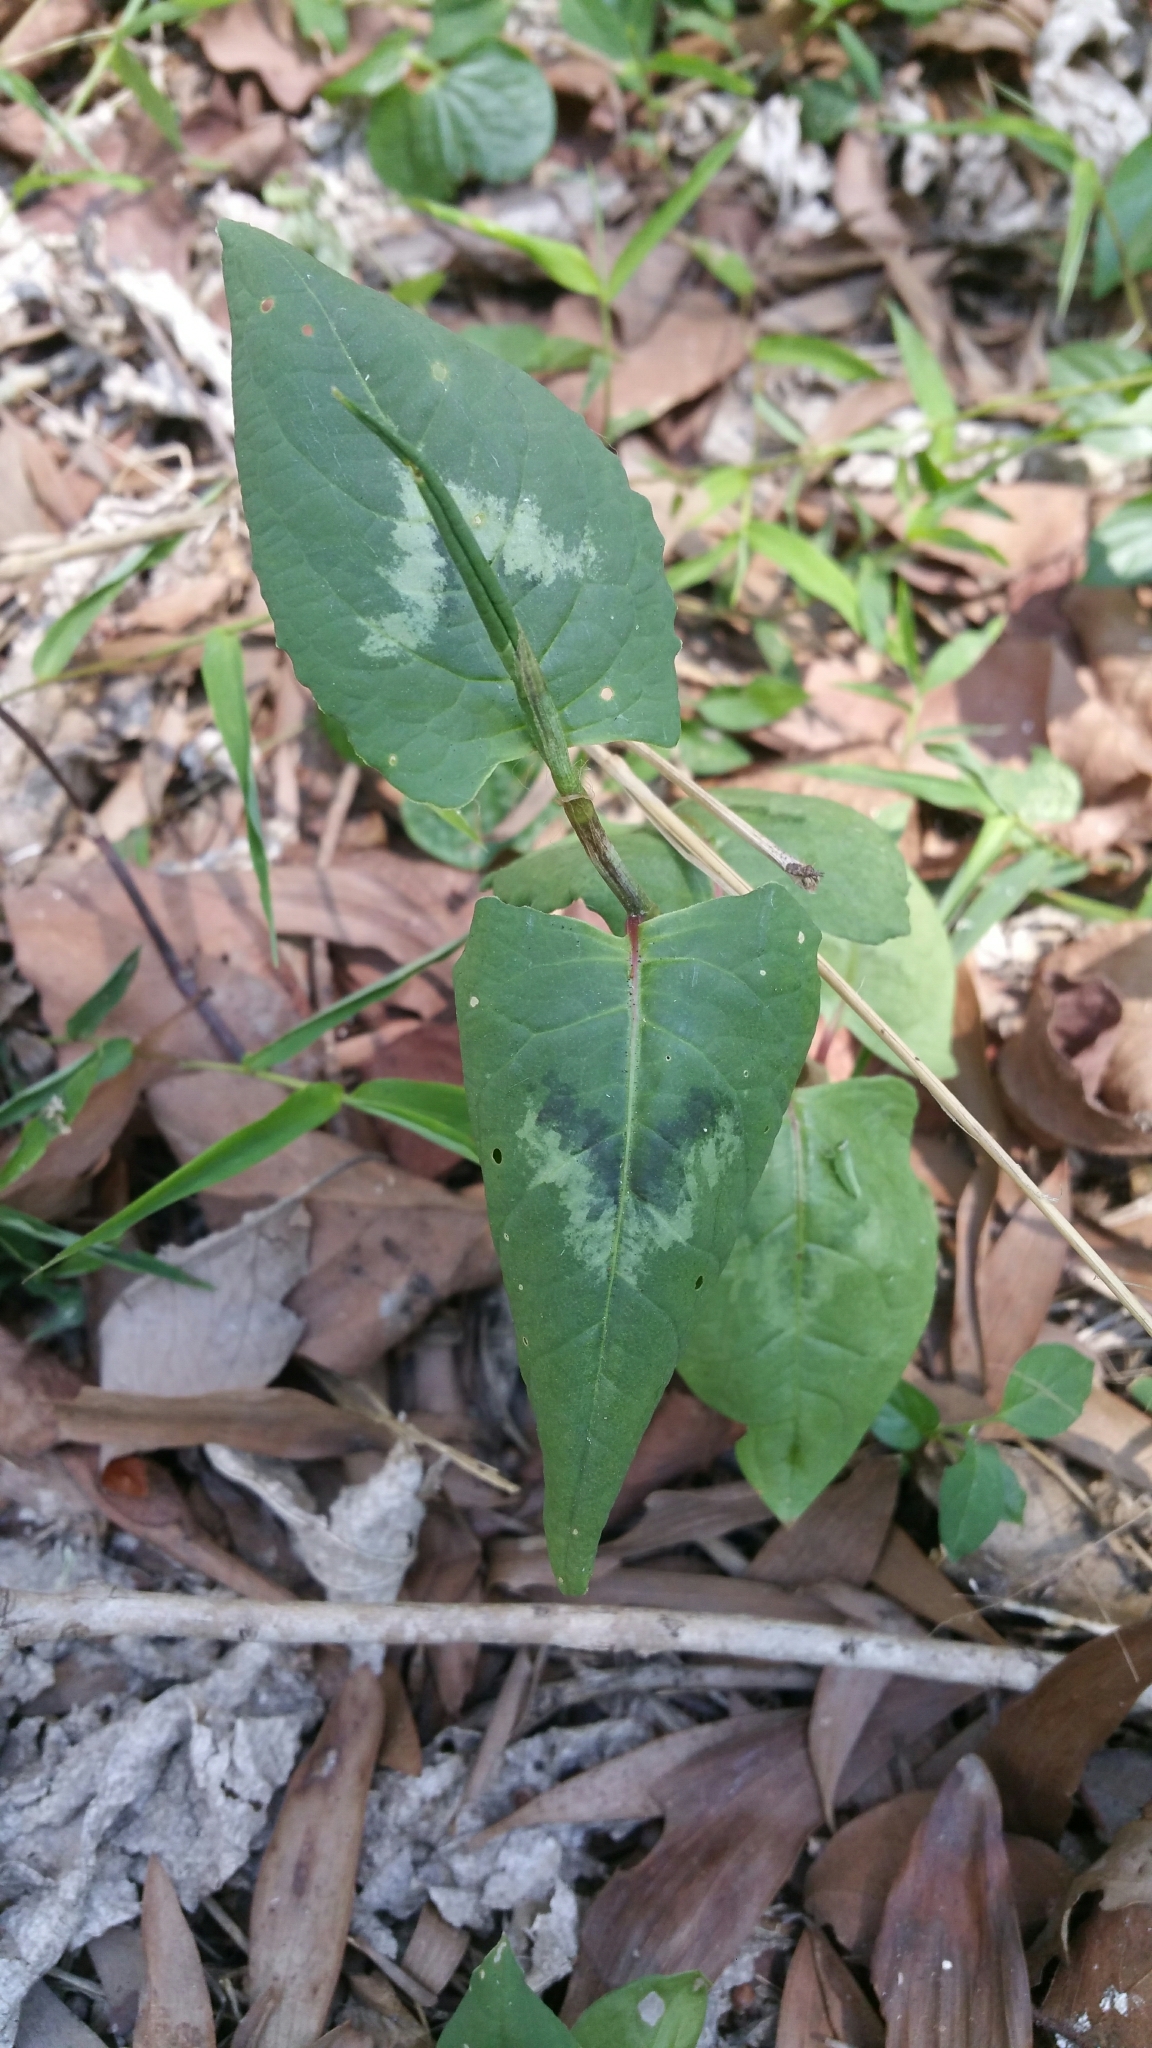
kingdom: Plantae
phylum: Tracheophyta
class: Magnoliopsida
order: Caryophyllales
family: Polygonaceae
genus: Persicaria
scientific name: Persicaria chinensis
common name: Chinese knotweed
